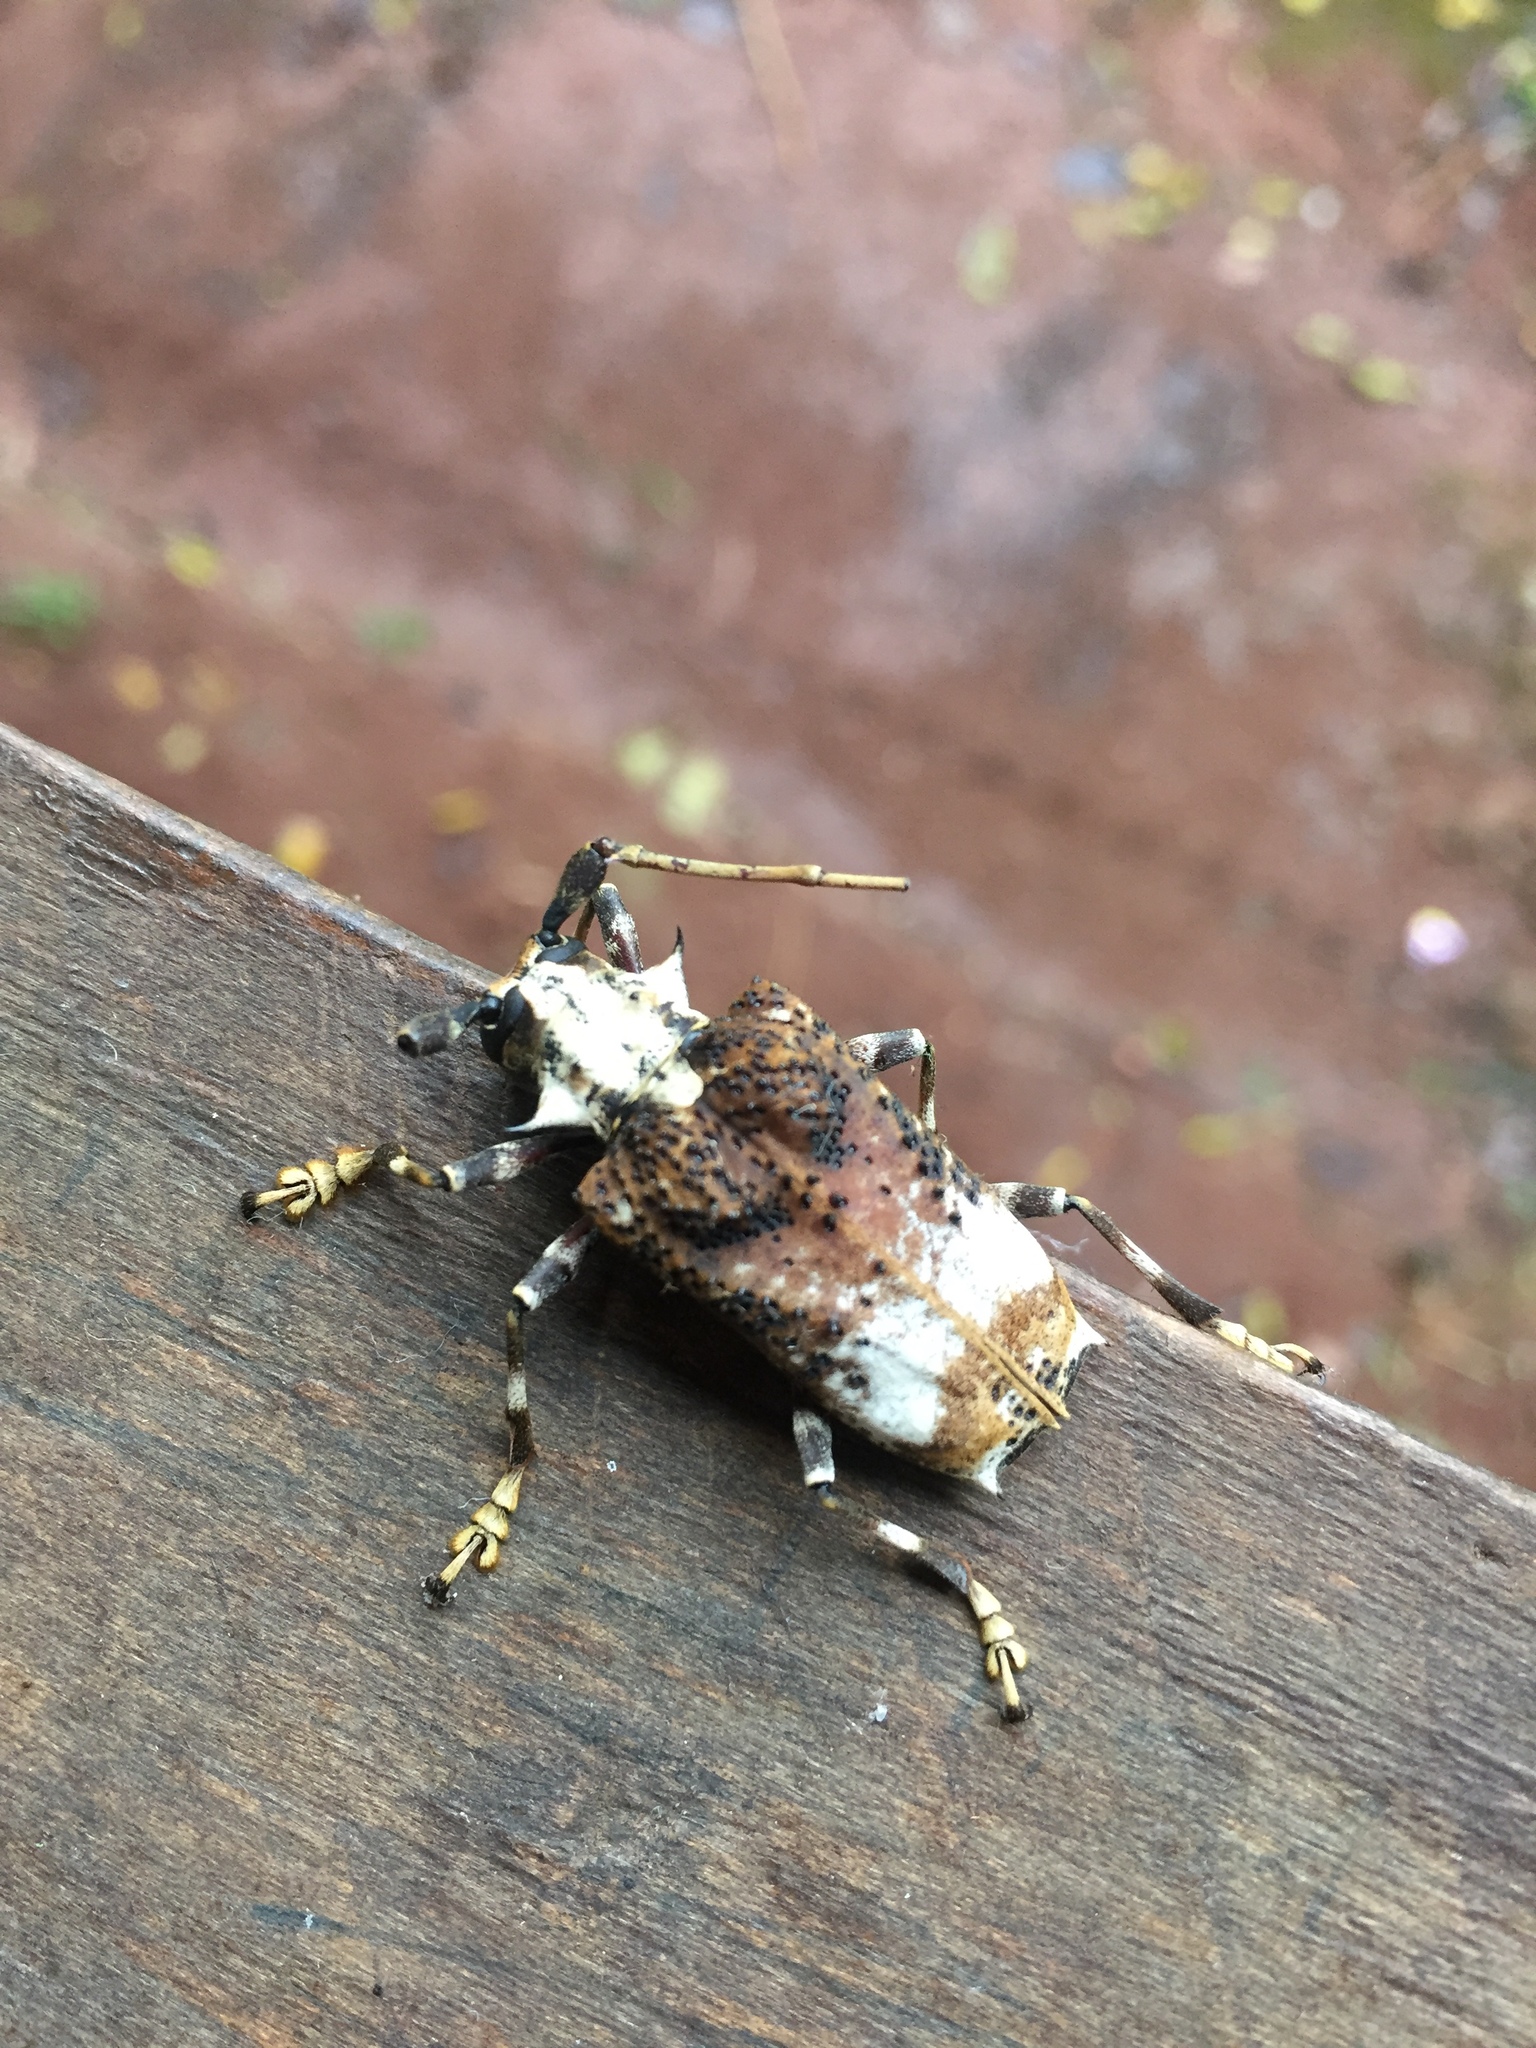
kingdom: Animalia
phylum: Arthropoda
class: Insecta
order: Coleoptera
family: Cerambycidae
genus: Polyrhaphis
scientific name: Polyrhaphis grandini
